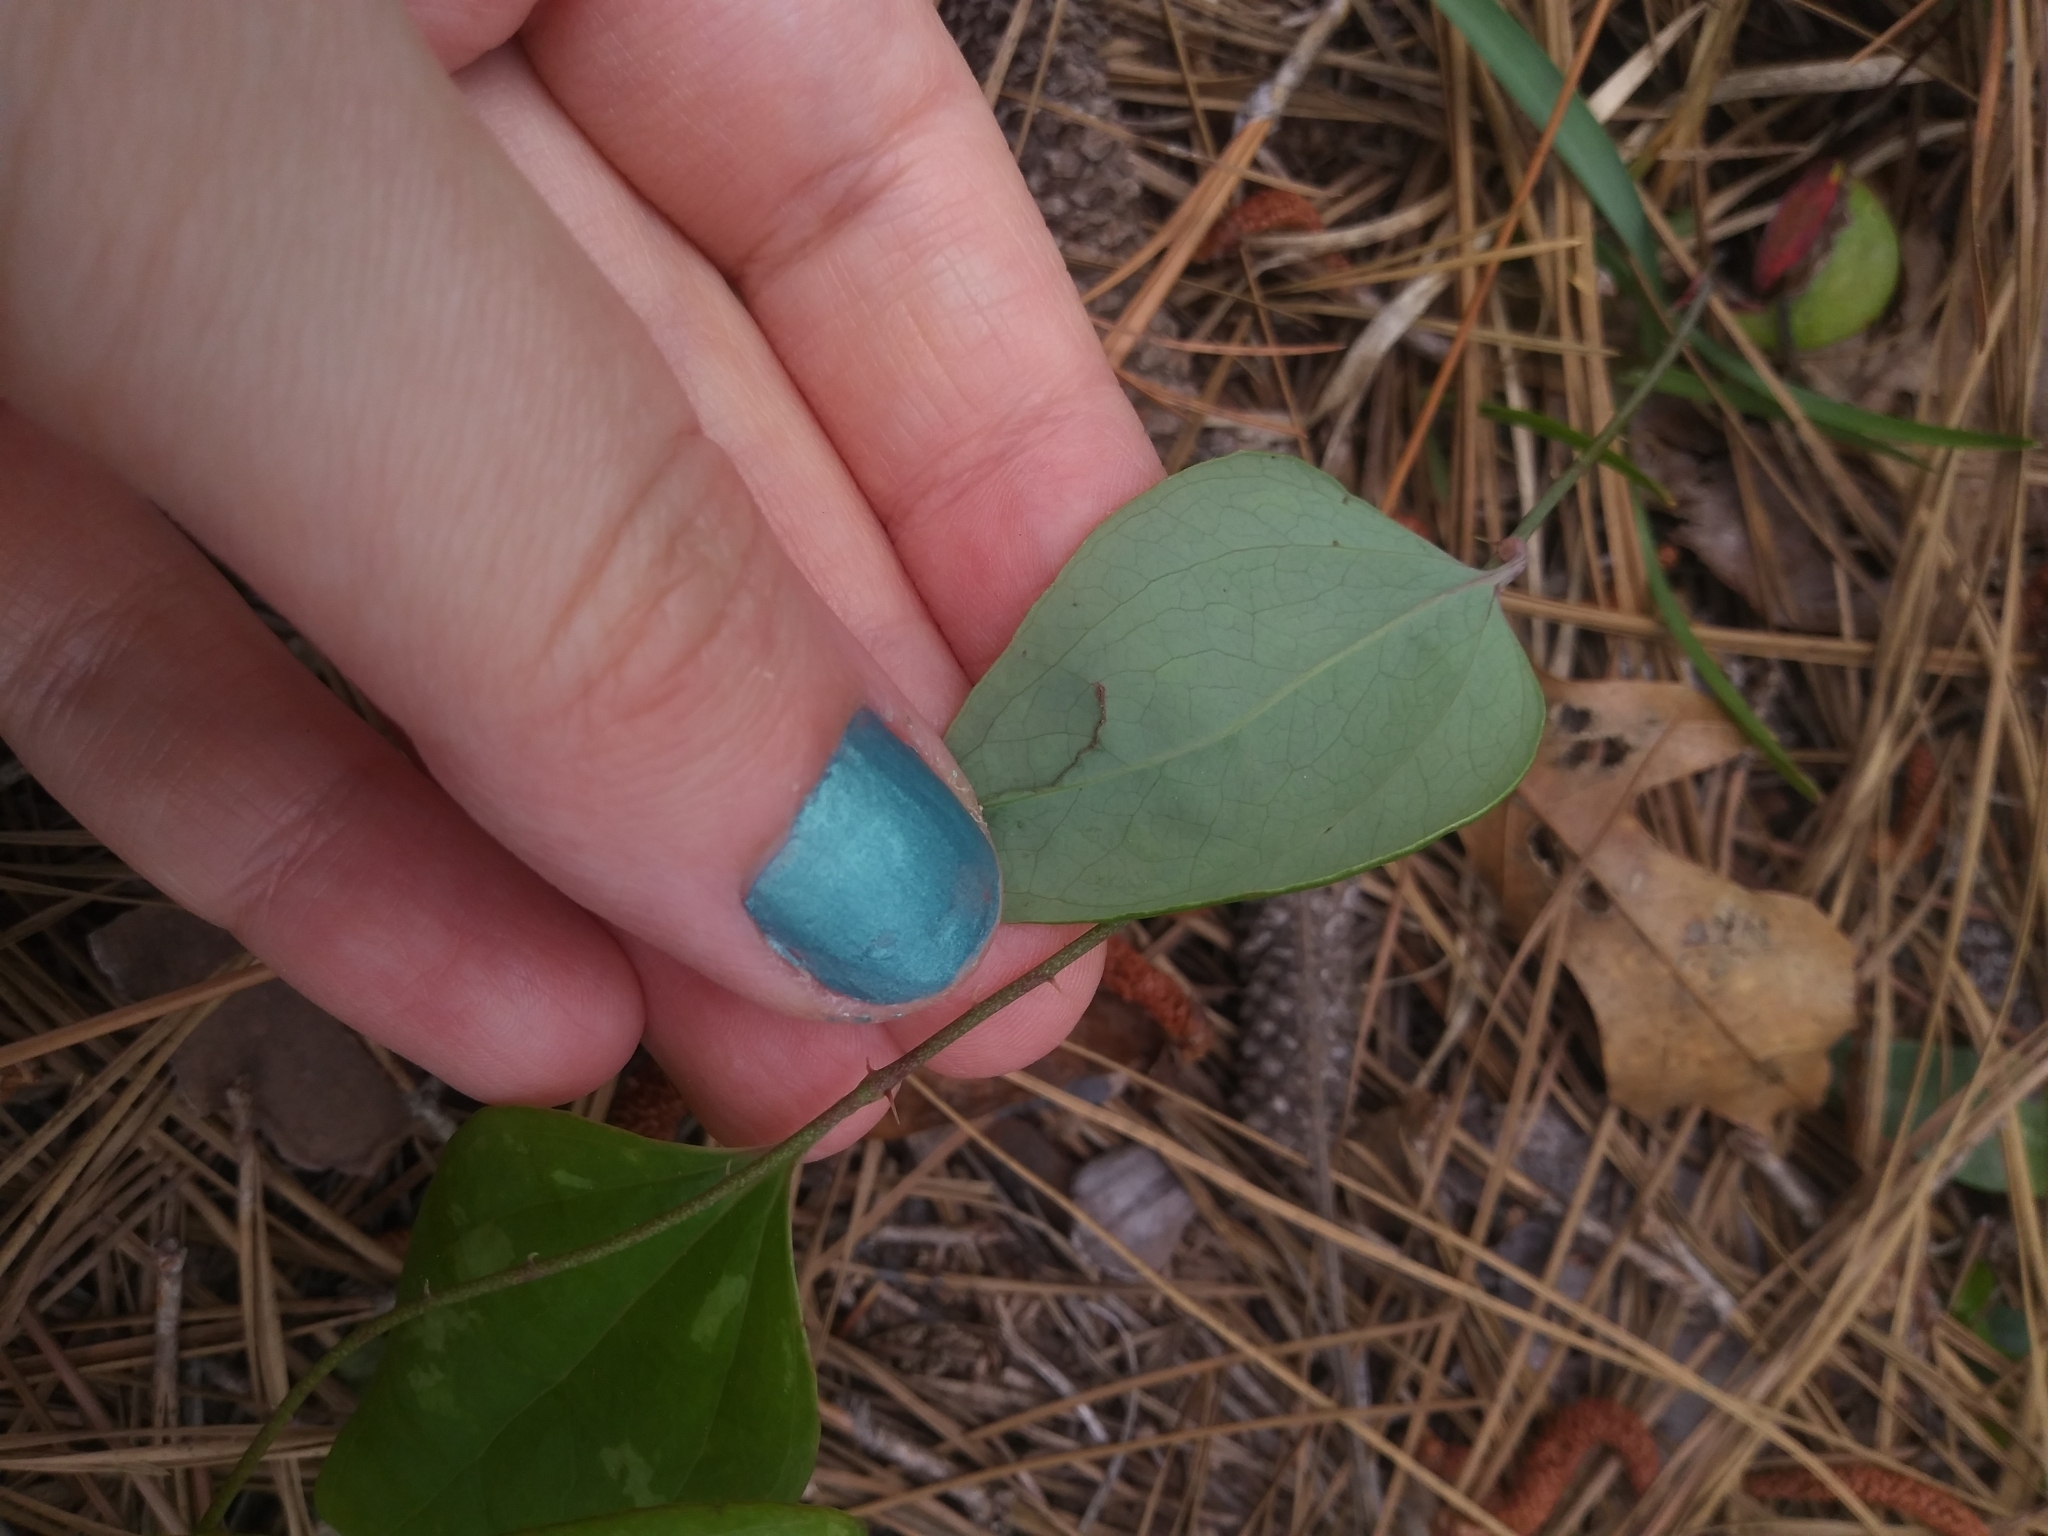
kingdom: Plantae
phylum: Tracheophyta
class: Liliopsida
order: Liliales
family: Smilacaceae
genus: Smilax
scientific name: Smilax glauca
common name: Cat greenbrier
